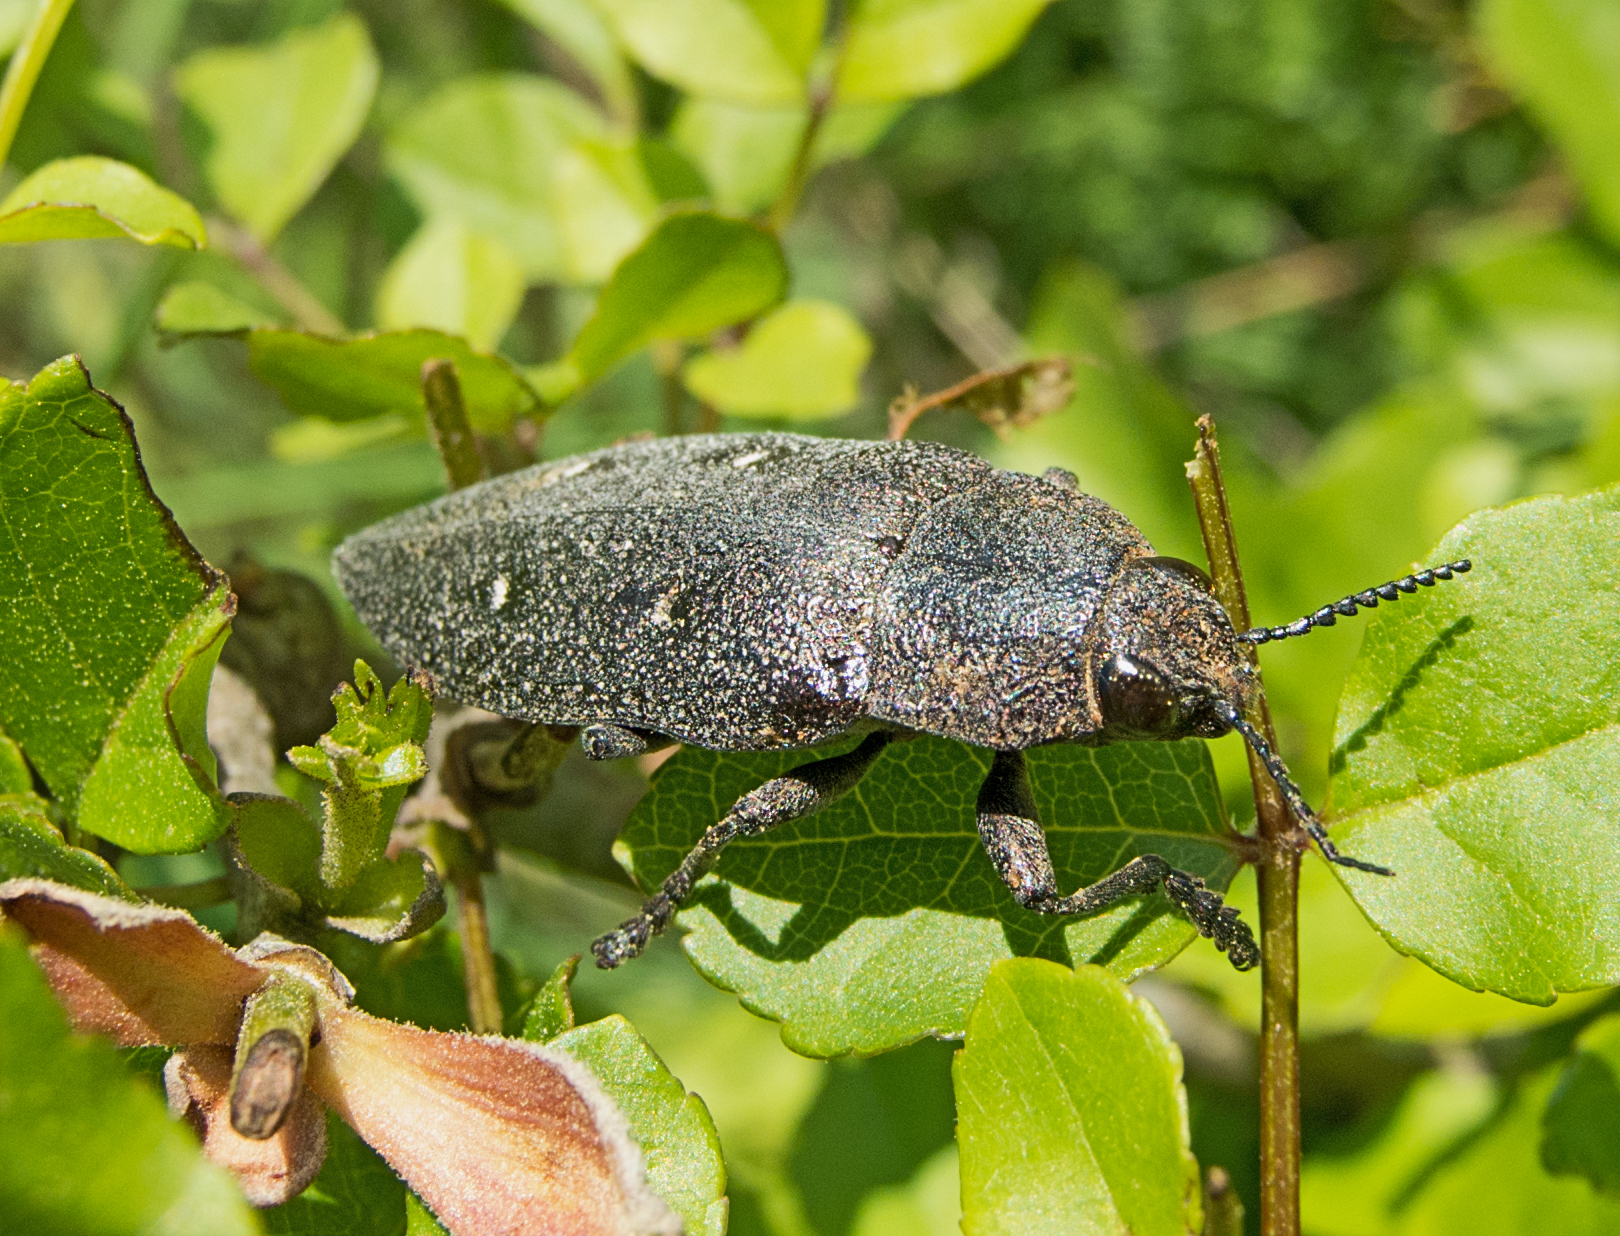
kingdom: Animalia
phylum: Arthropoda
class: Insecta
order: Coleoptera
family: Buprestidae
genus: Chalcophorella
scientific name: Chalcophorella stigmatica
